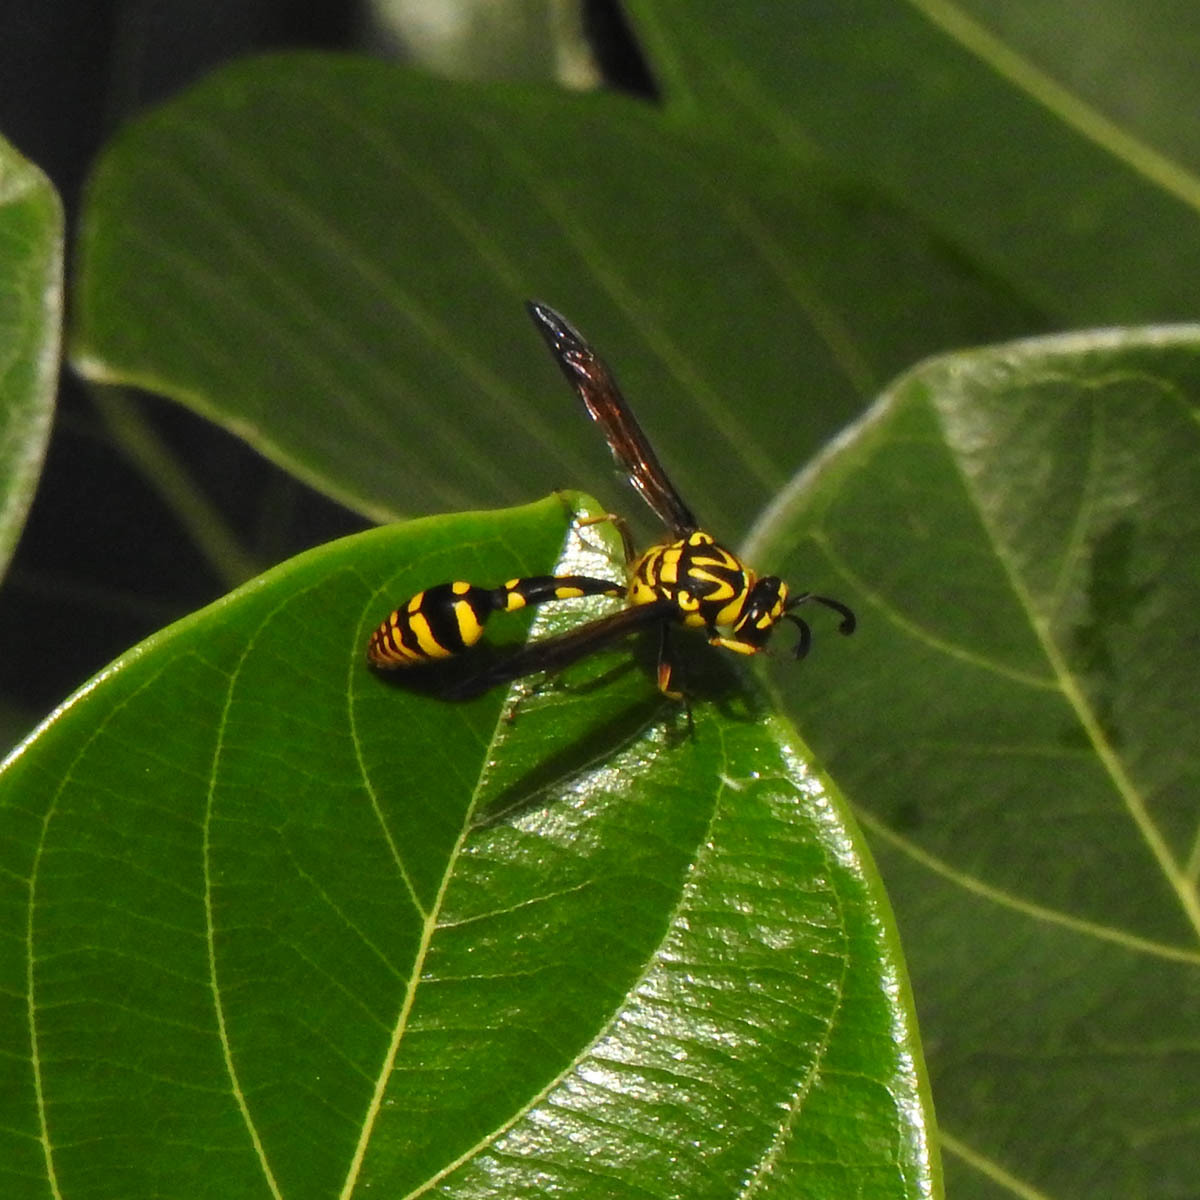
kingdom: Animalia
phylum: Arthropoda
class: Insecta
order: Hymenoptera
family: Eumenidae
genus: Phimenes
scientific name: Phimenes flavopictus
